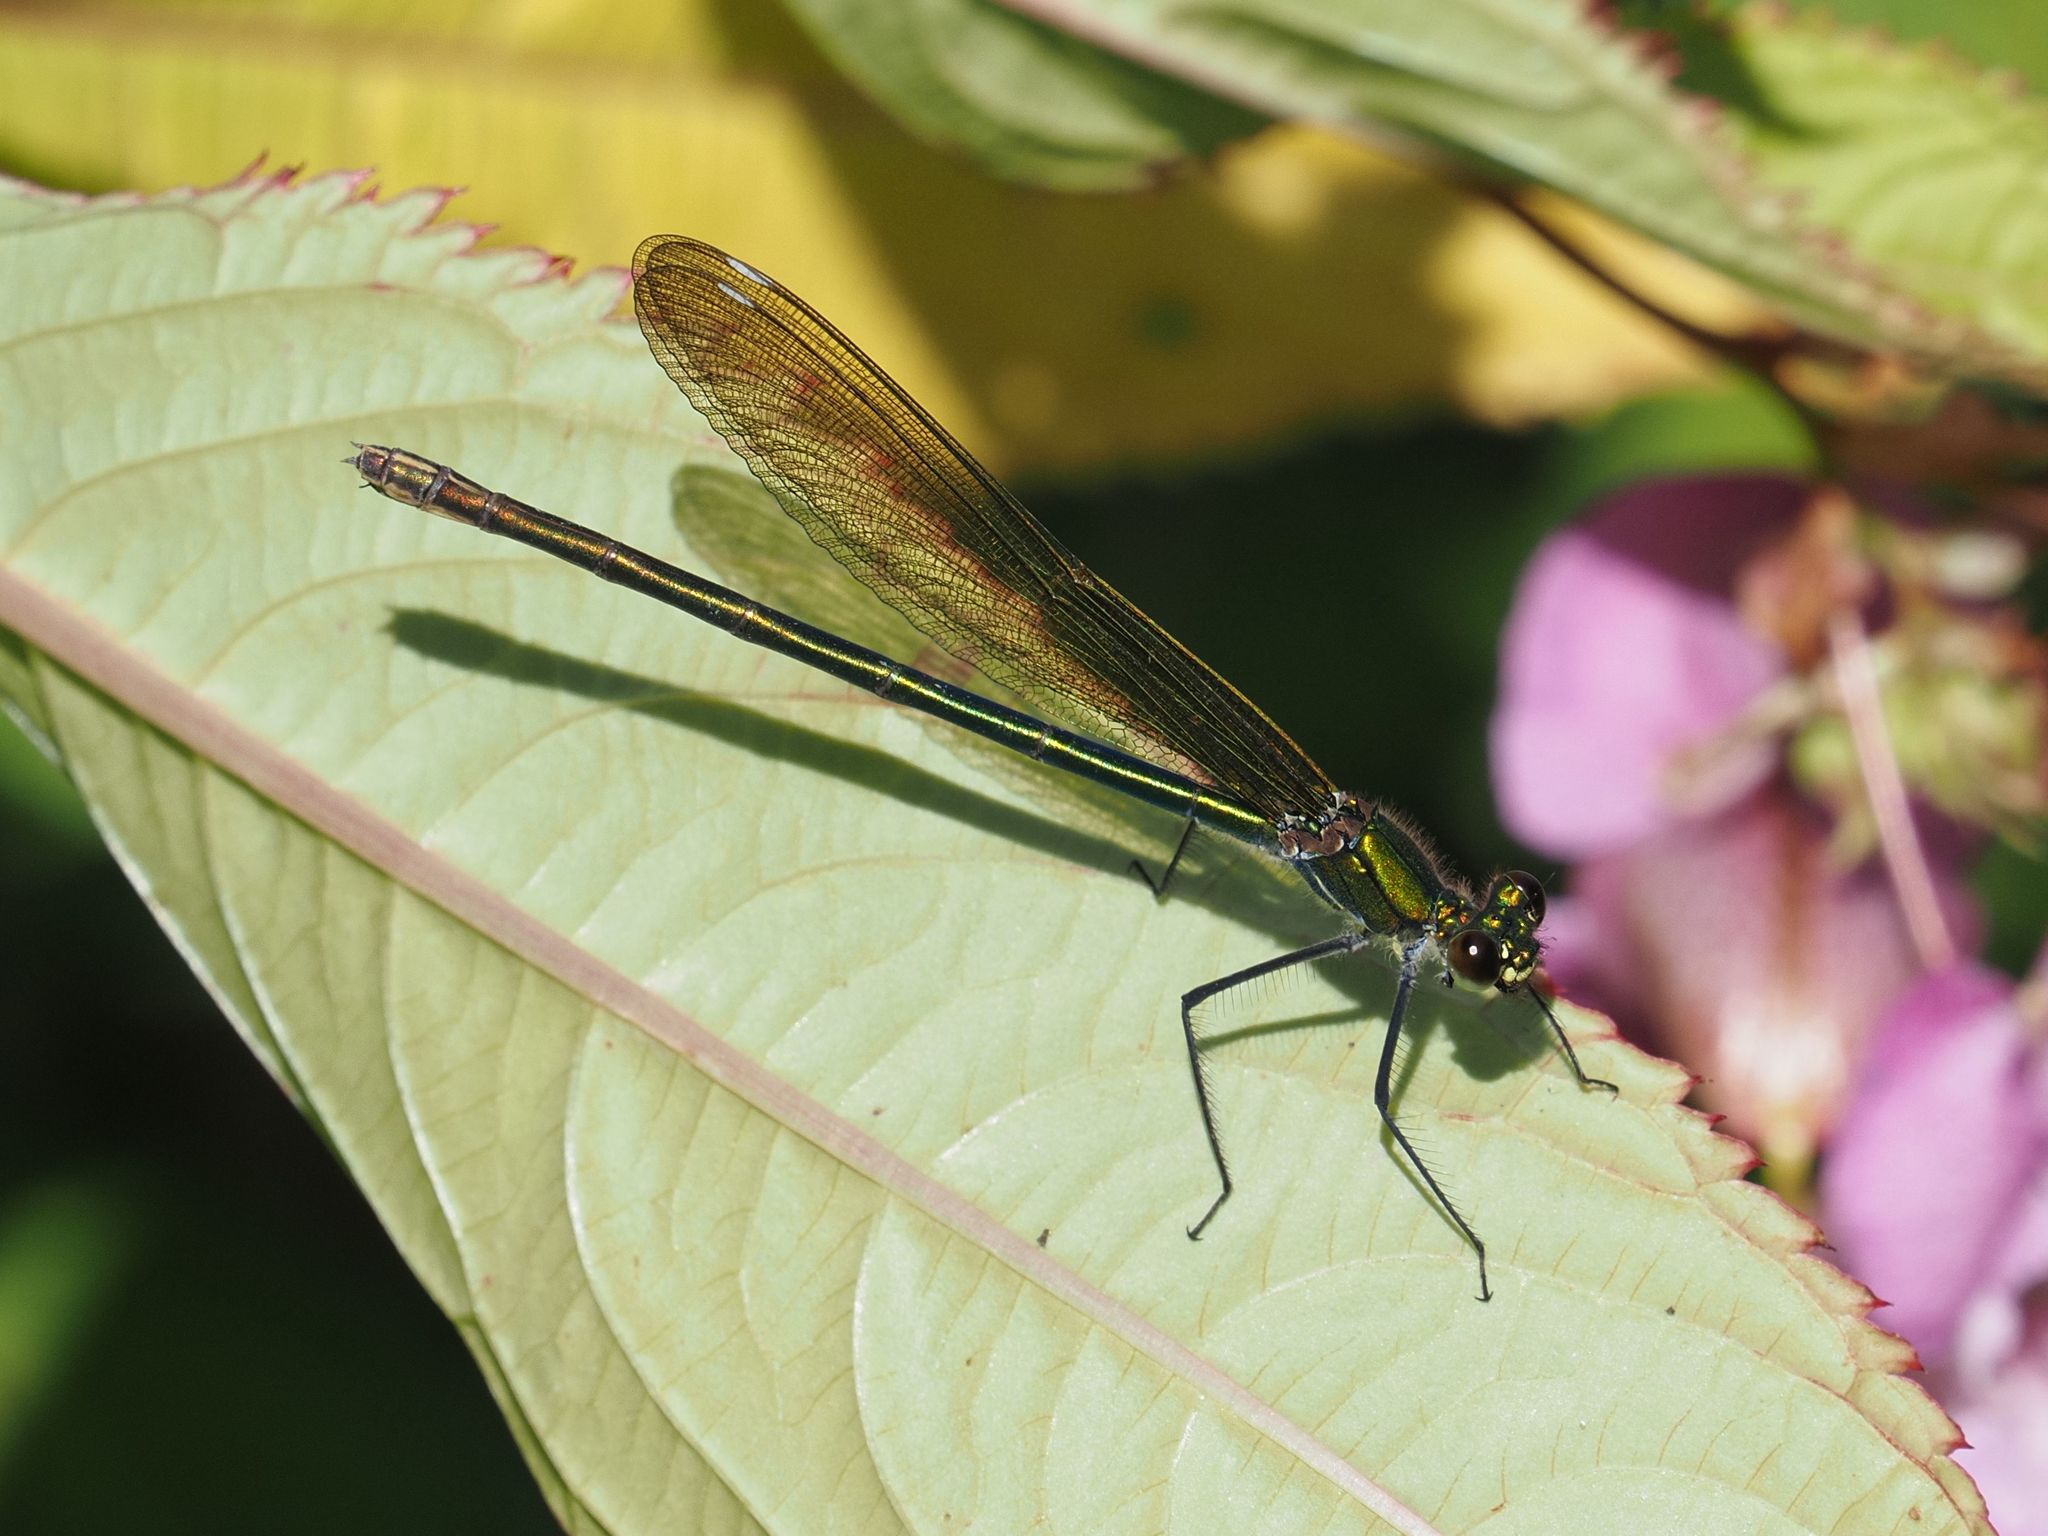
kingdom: Animalia
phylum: Arthropoda
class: Insecta
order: Odonata
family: Calopterygidae
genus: Calopteryx
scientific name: Calopteryx splendens
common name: Banded demoiselle
